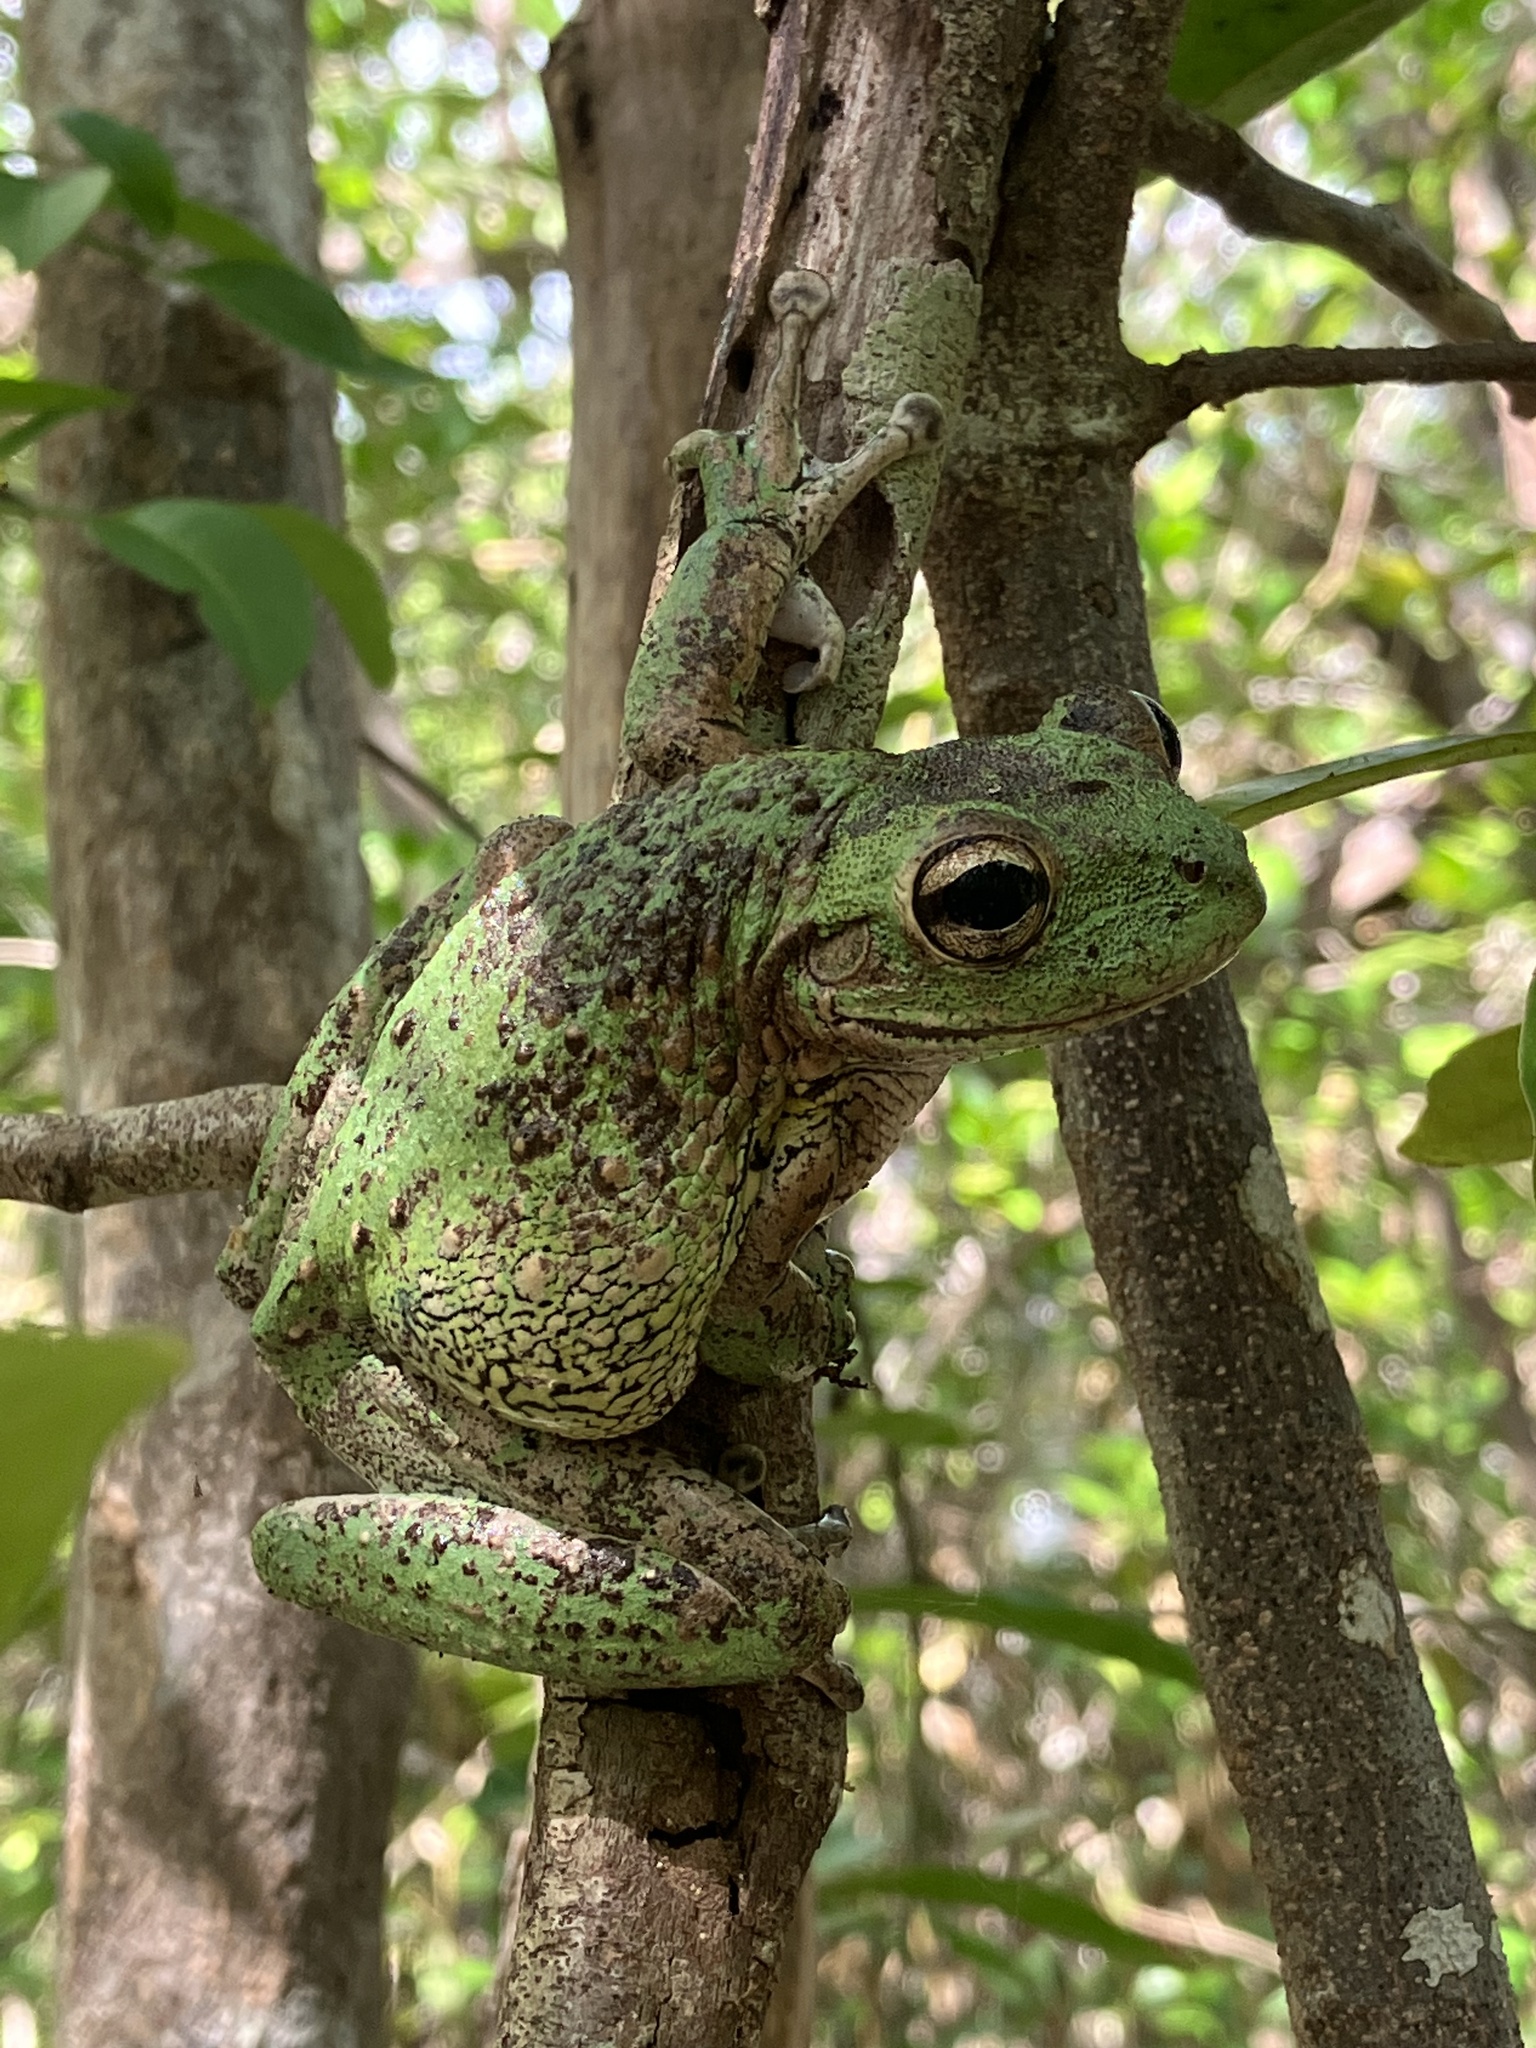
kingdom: Animalia
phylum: Chordata
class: Amphibia
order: Anura
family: Hylidae
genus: Osteopilus
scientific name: Osteopilus septentrionalis
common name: Cuban treefrog
